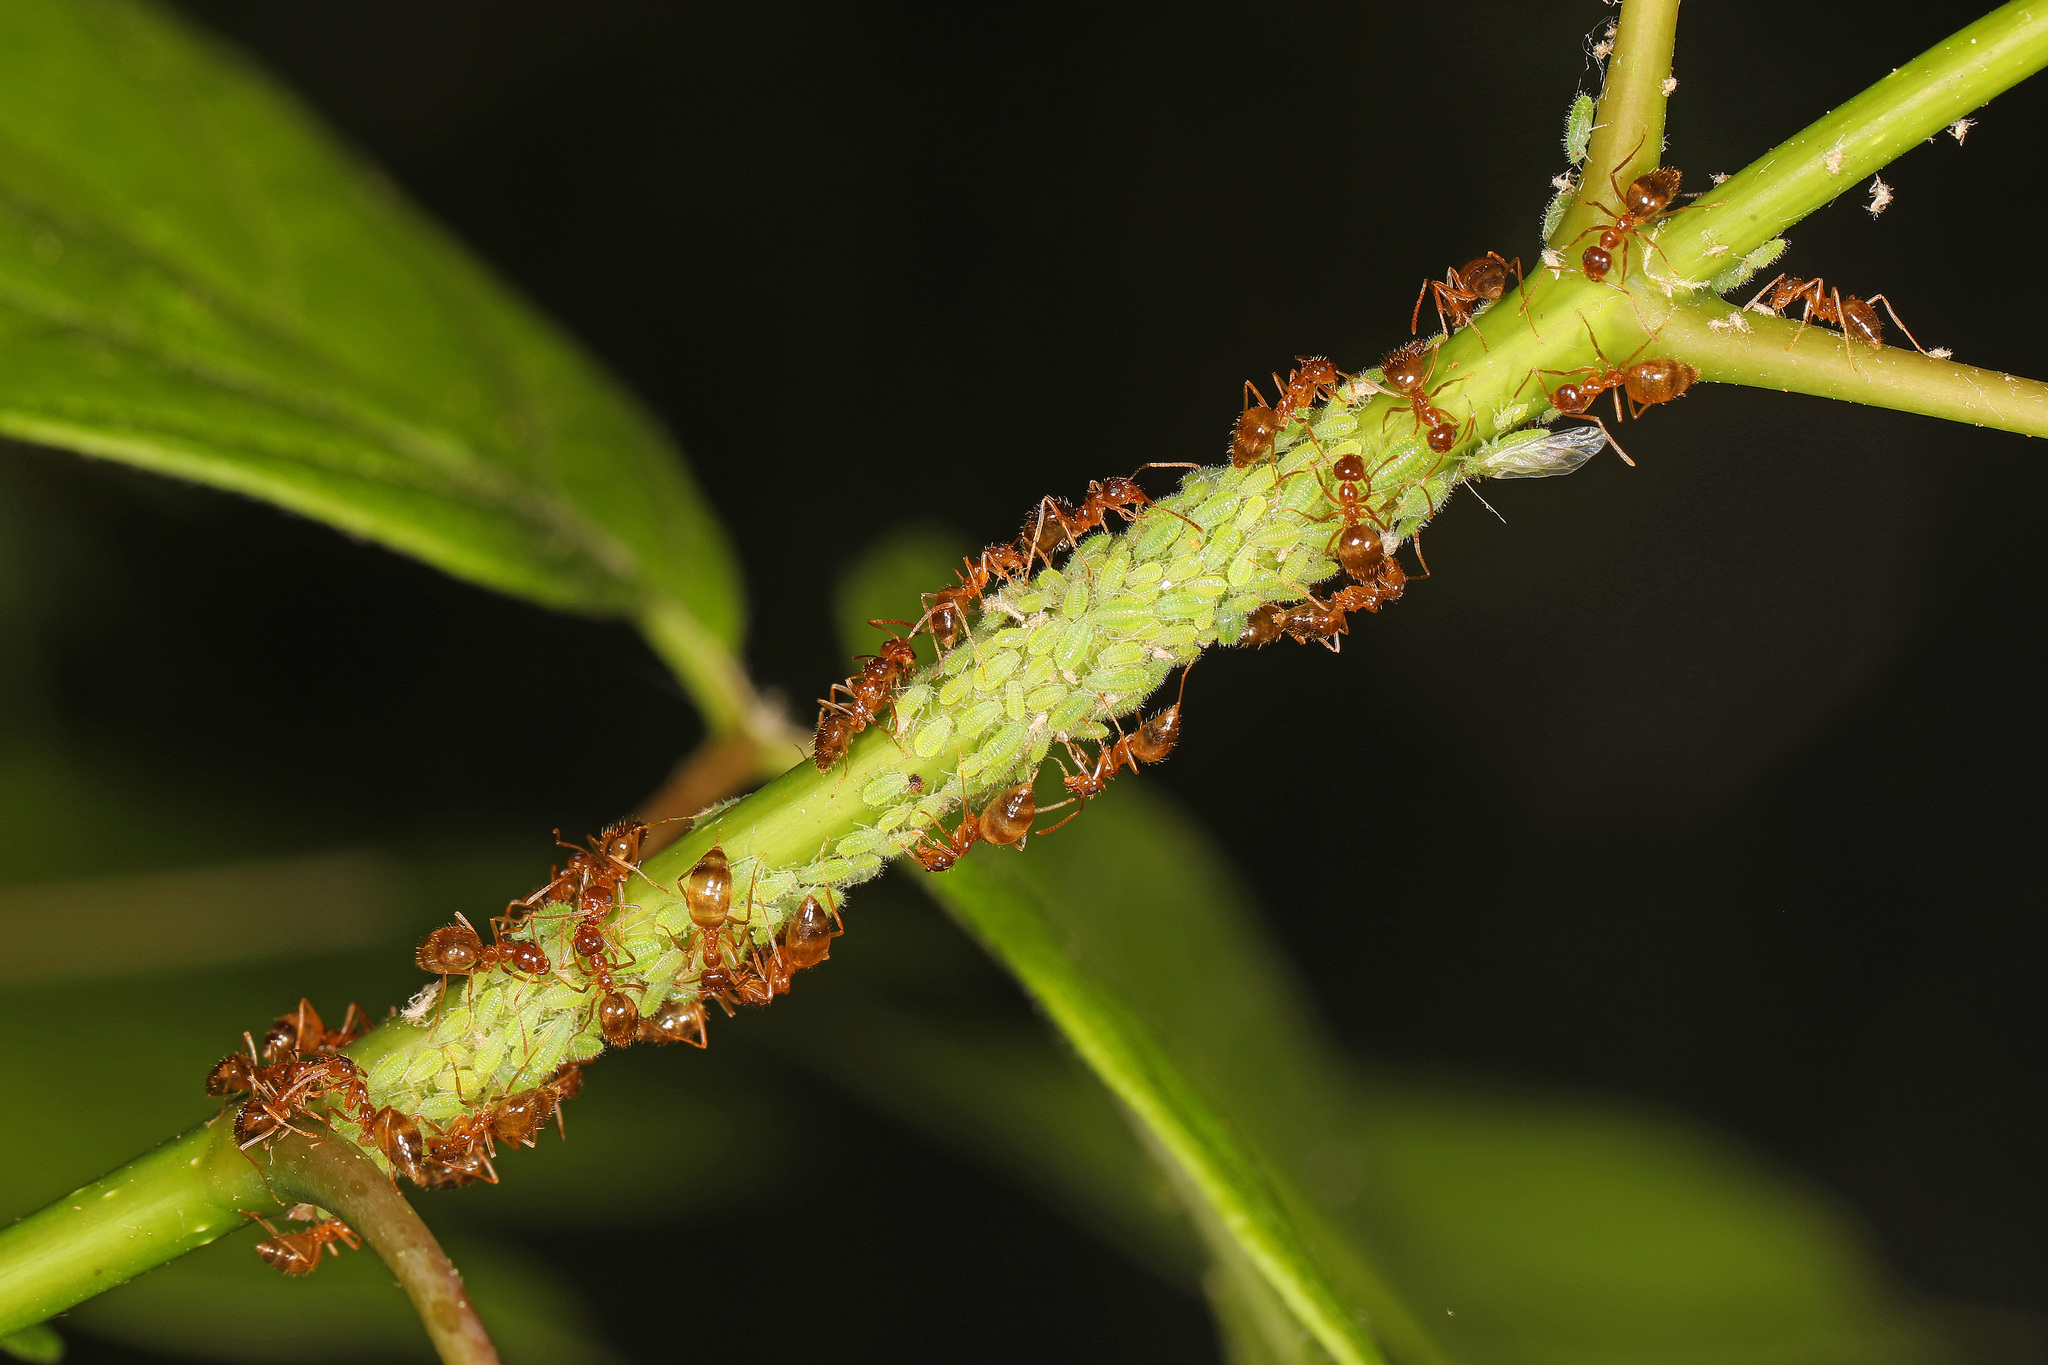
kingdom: Animalia
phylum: Arthropoda
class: Insecta
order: Hymenoptera
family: Formicidae
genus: Prenolepis
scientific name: Prenolepis imparis
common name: Small honey ant
